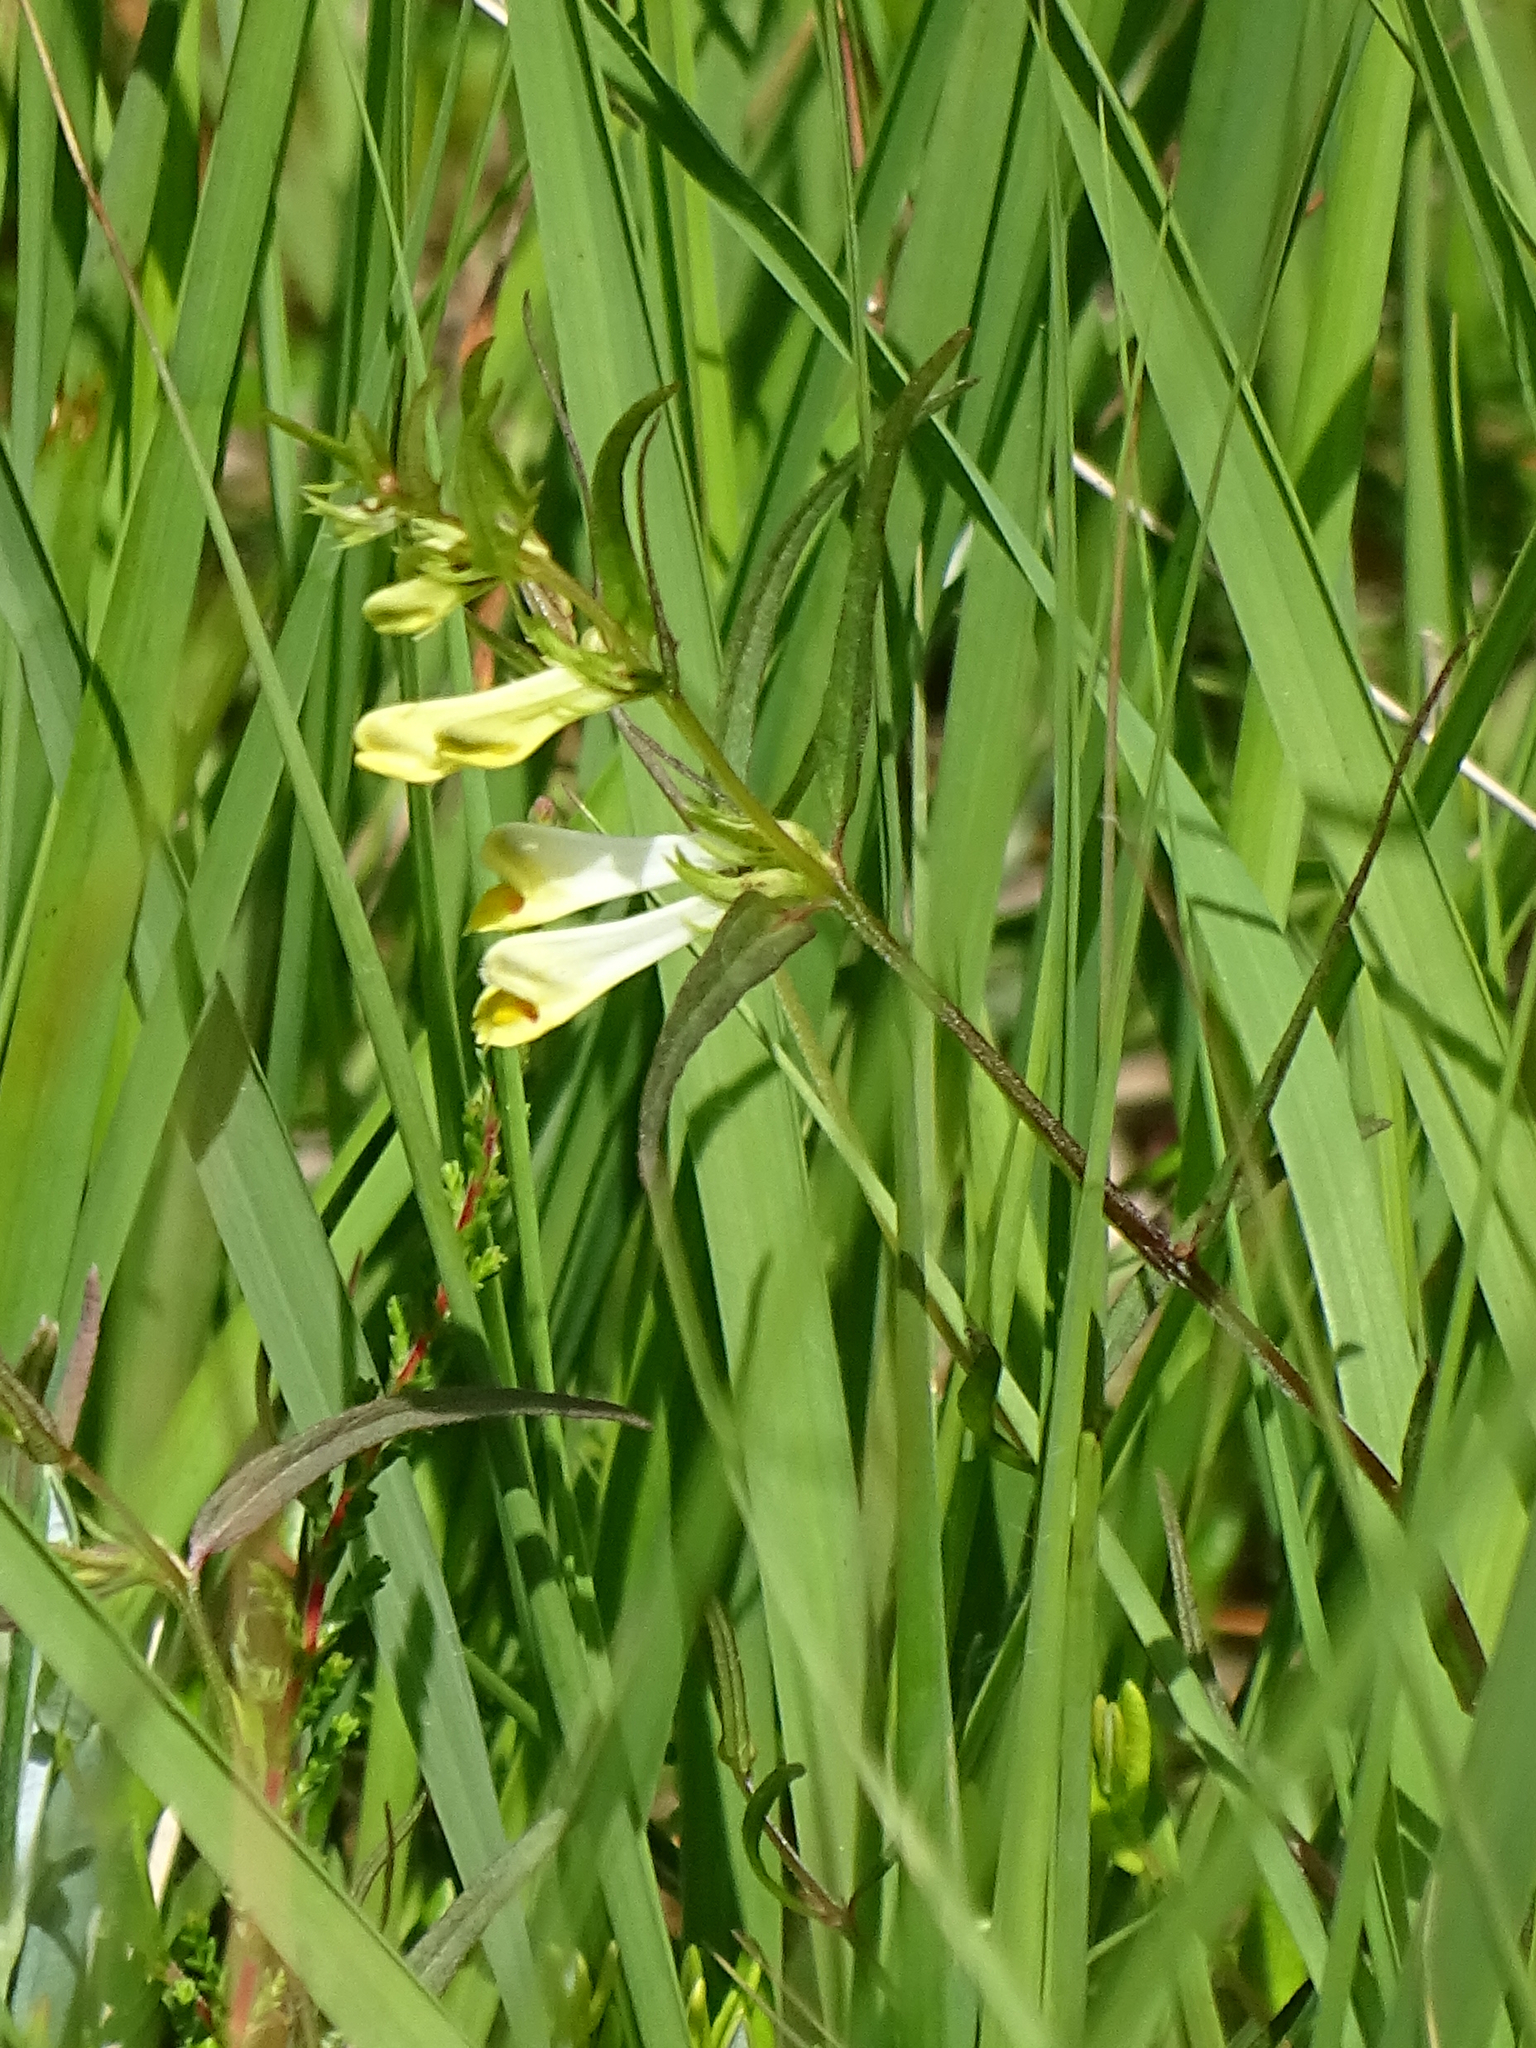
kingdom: Plantae
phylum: Tracheophyta
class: Magnoliopsida
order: Lamiales
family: Orobanchaceae
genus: Melampyrum
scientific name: Melampyrum pratense
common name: Common cow-wheat
